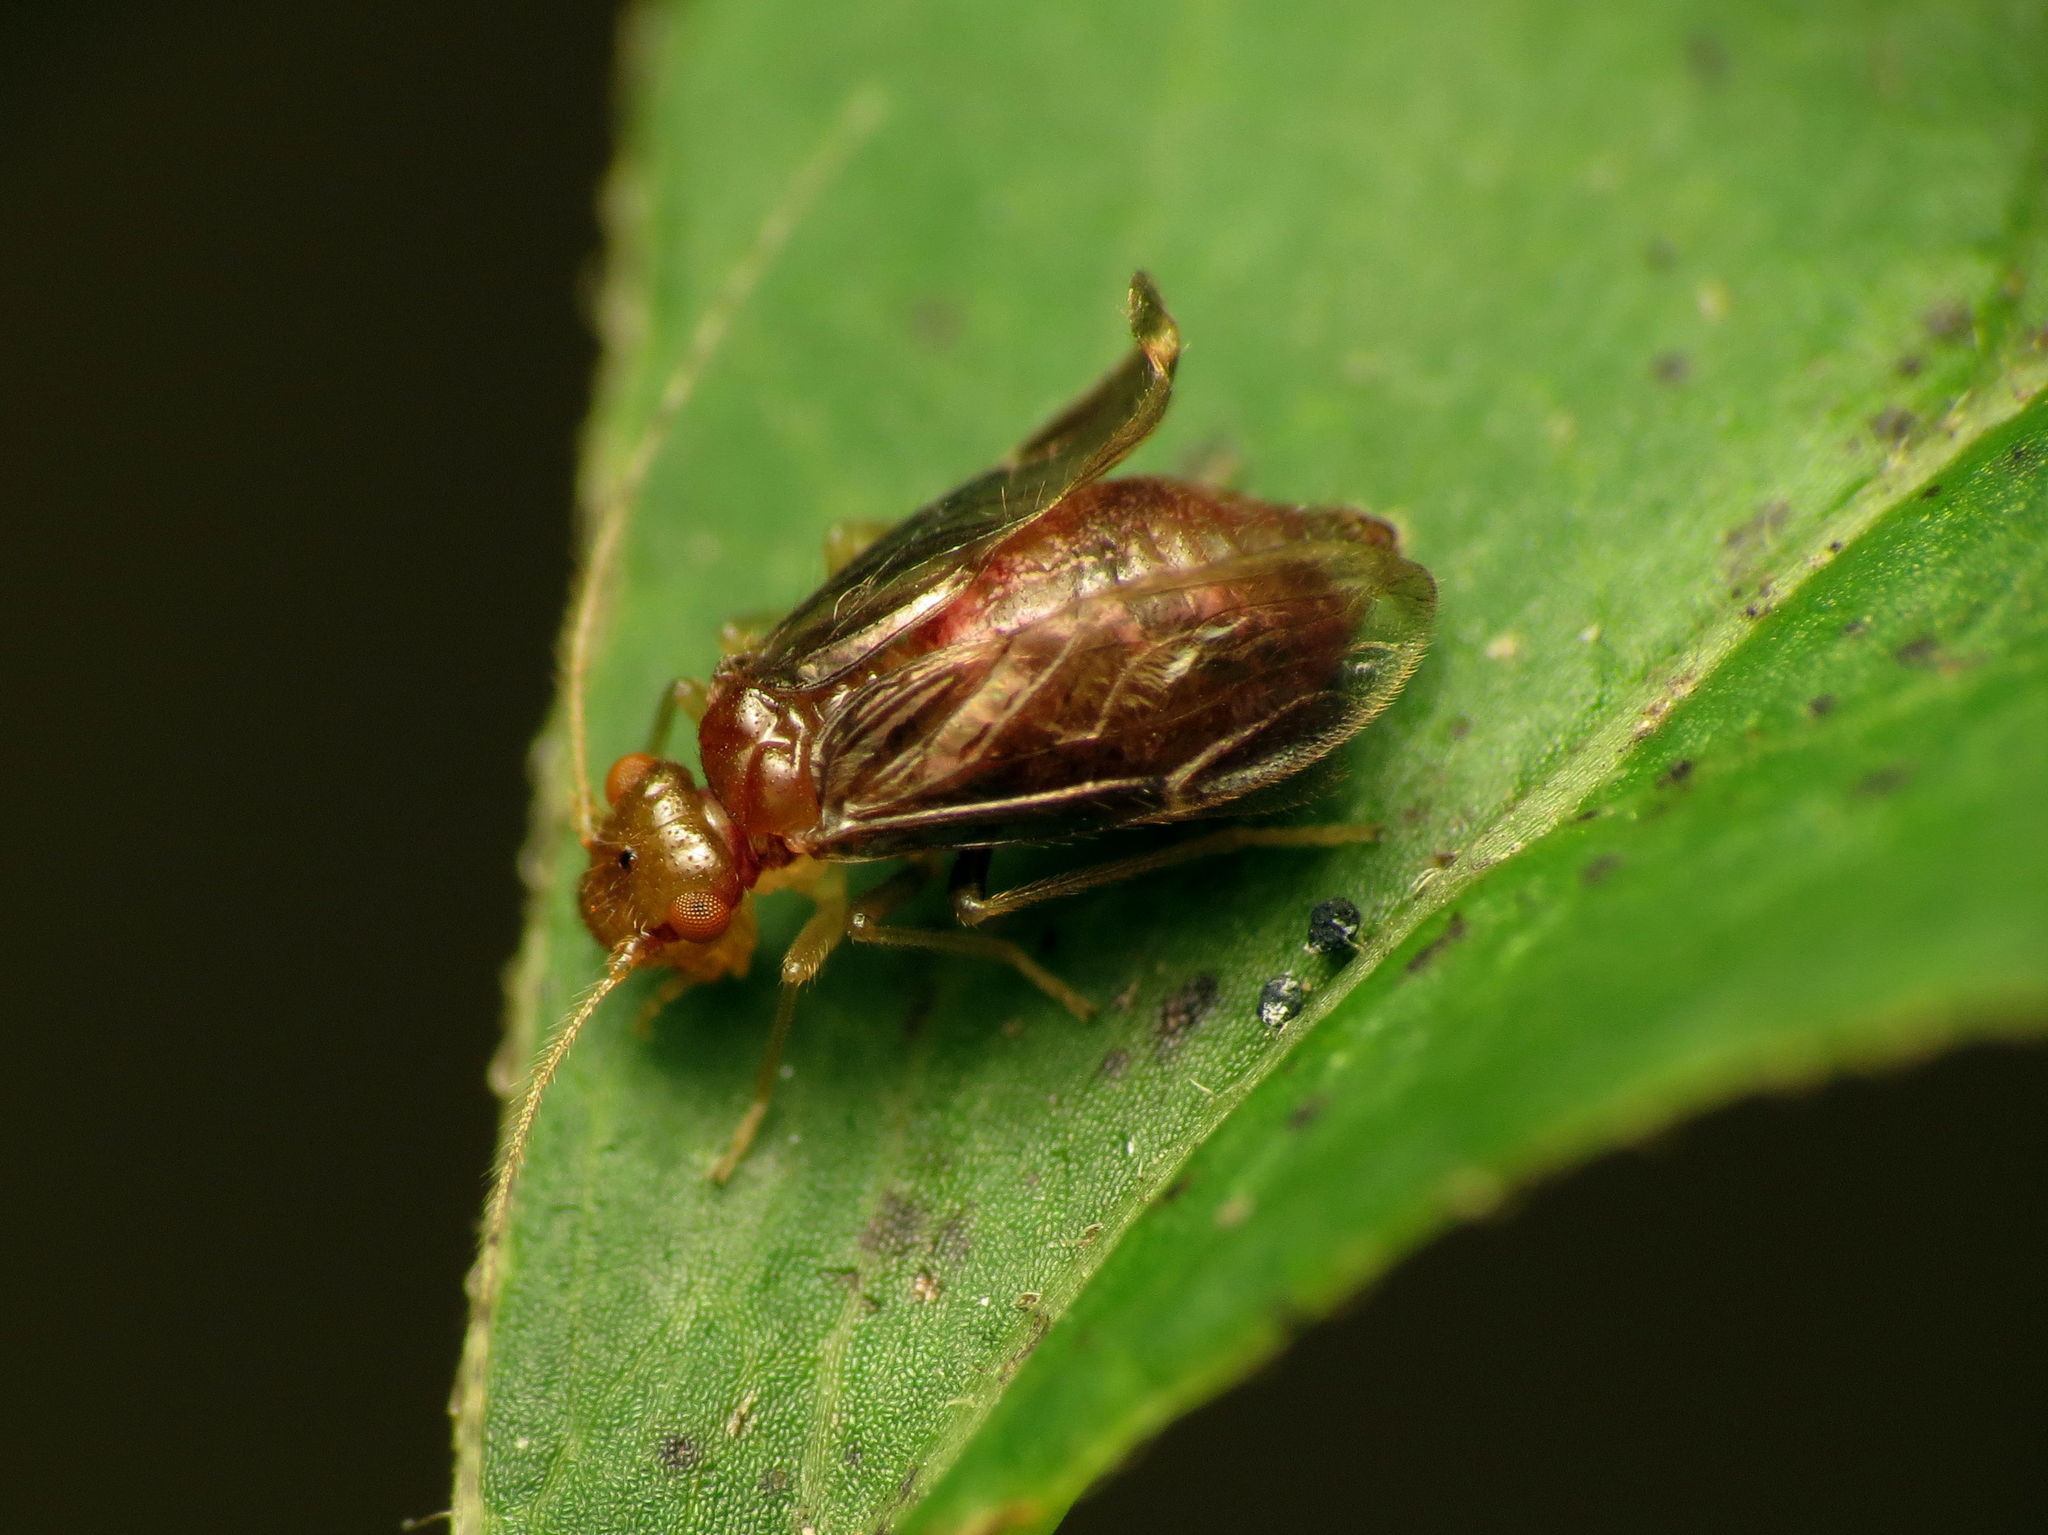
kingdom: Animalia
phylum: Arthropoda
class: Insecta
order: Psocodea
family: Amphipsocidae
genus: Polypsocus
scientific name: Polypsocus corruptus
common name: Corrupt barklouse
